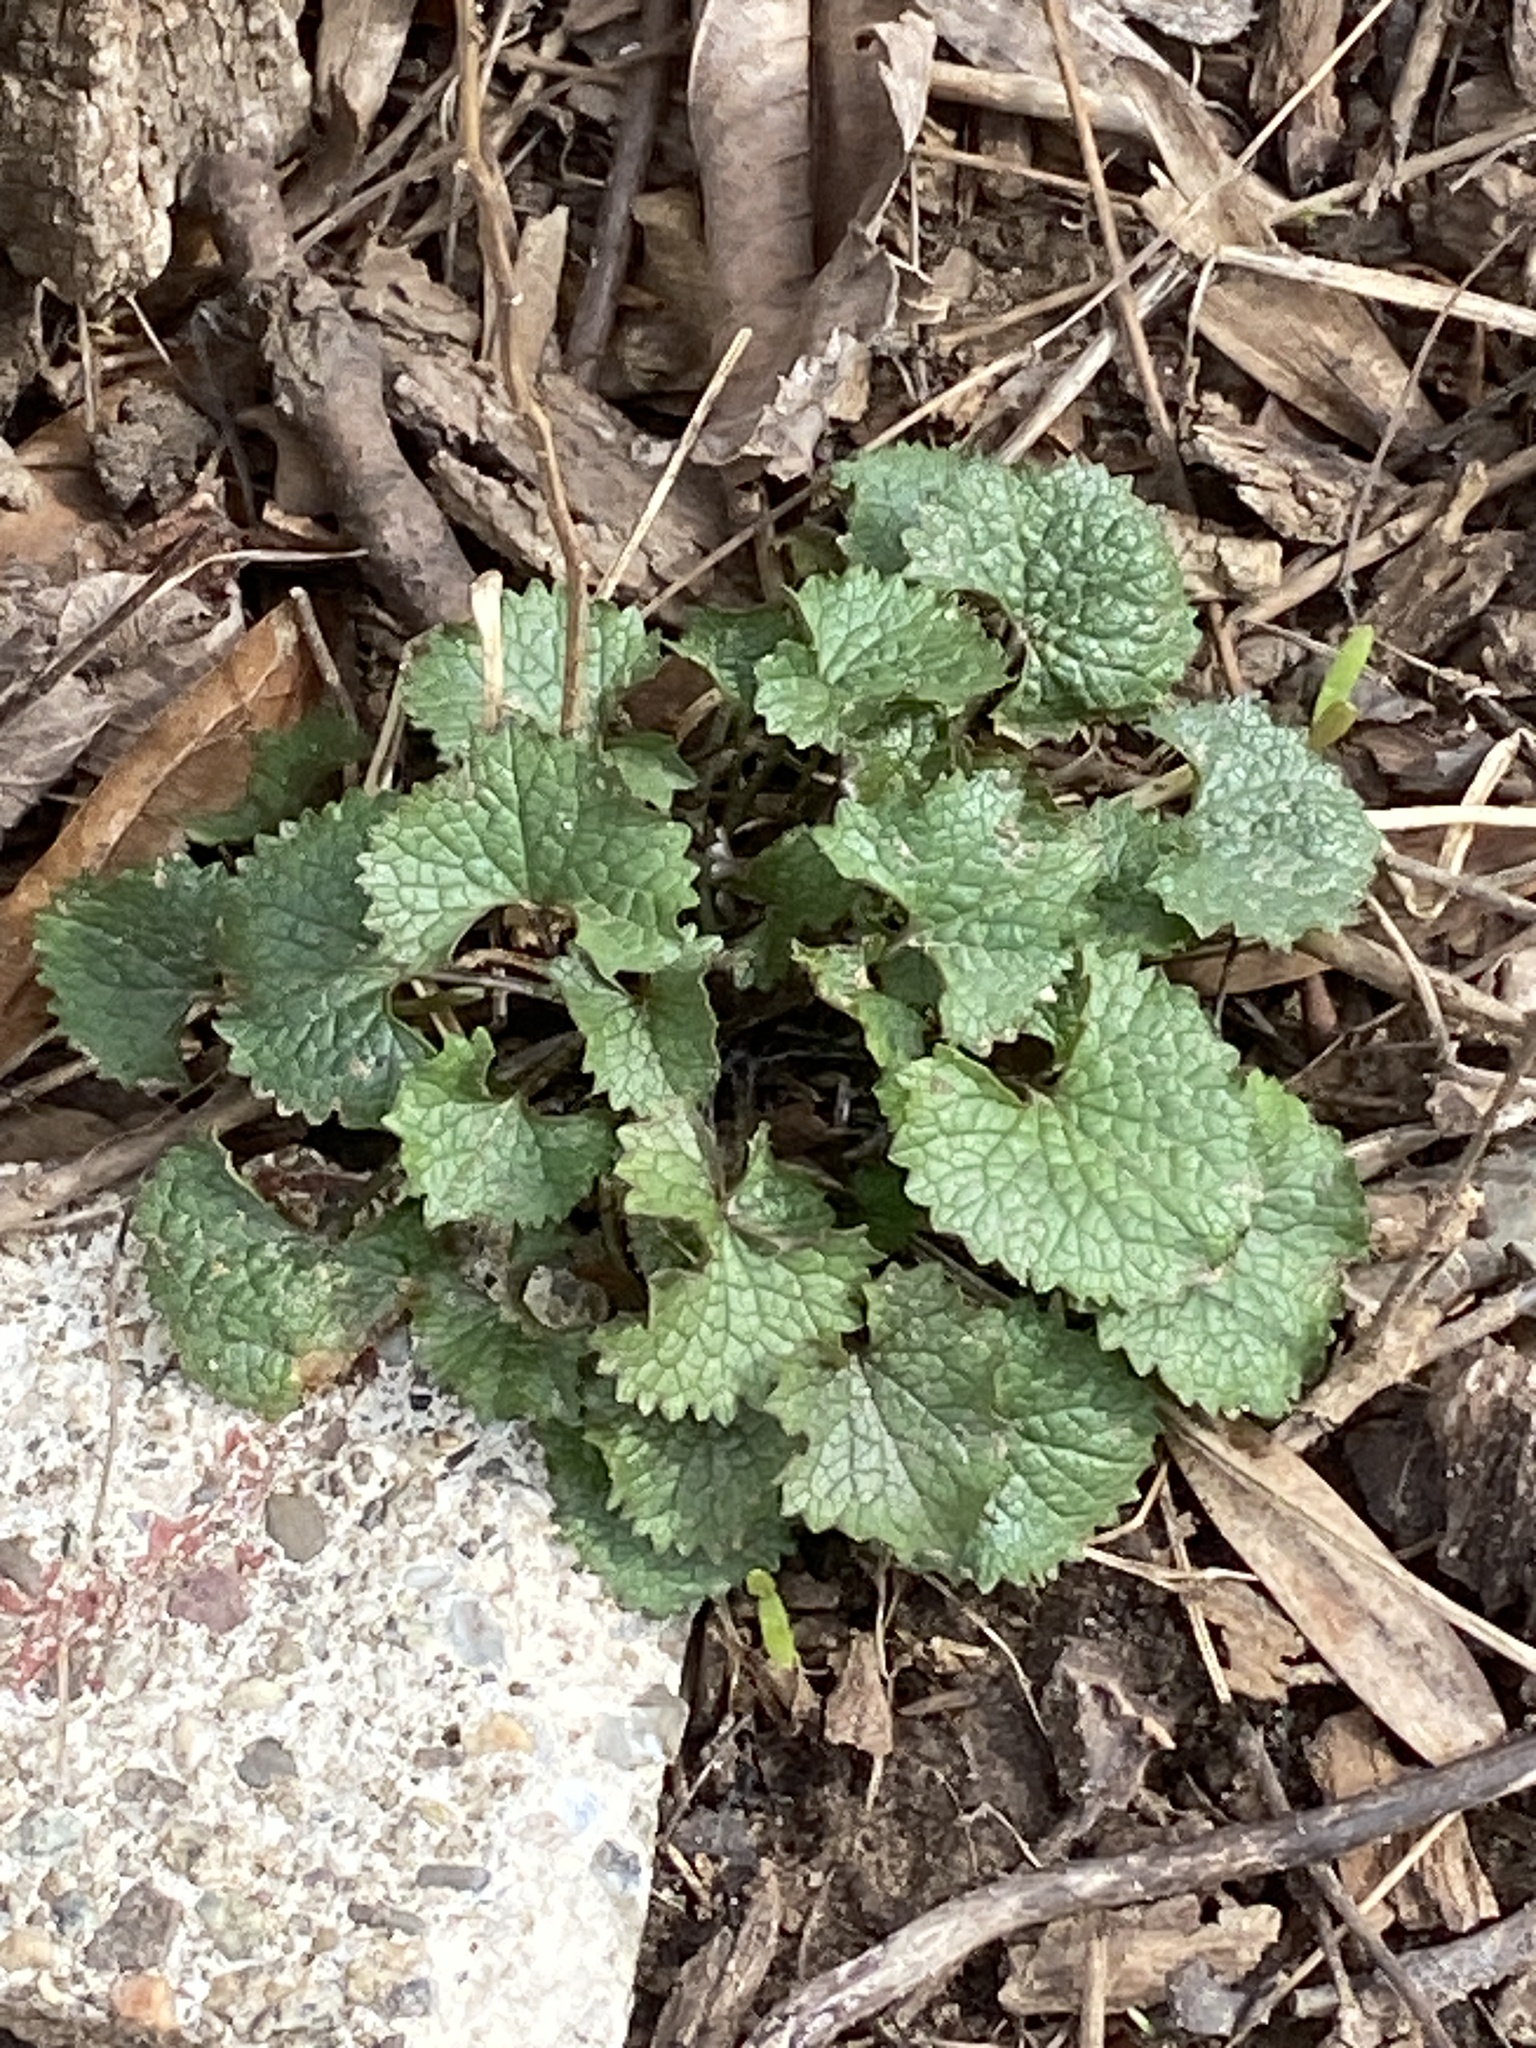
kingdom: Plantae
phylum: Tracheophyta
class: Magnoliopsida
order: Brassicales
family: Brassicaceae
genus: Alliaria
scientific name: Alliaria petiolata
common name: Garlic mustard
